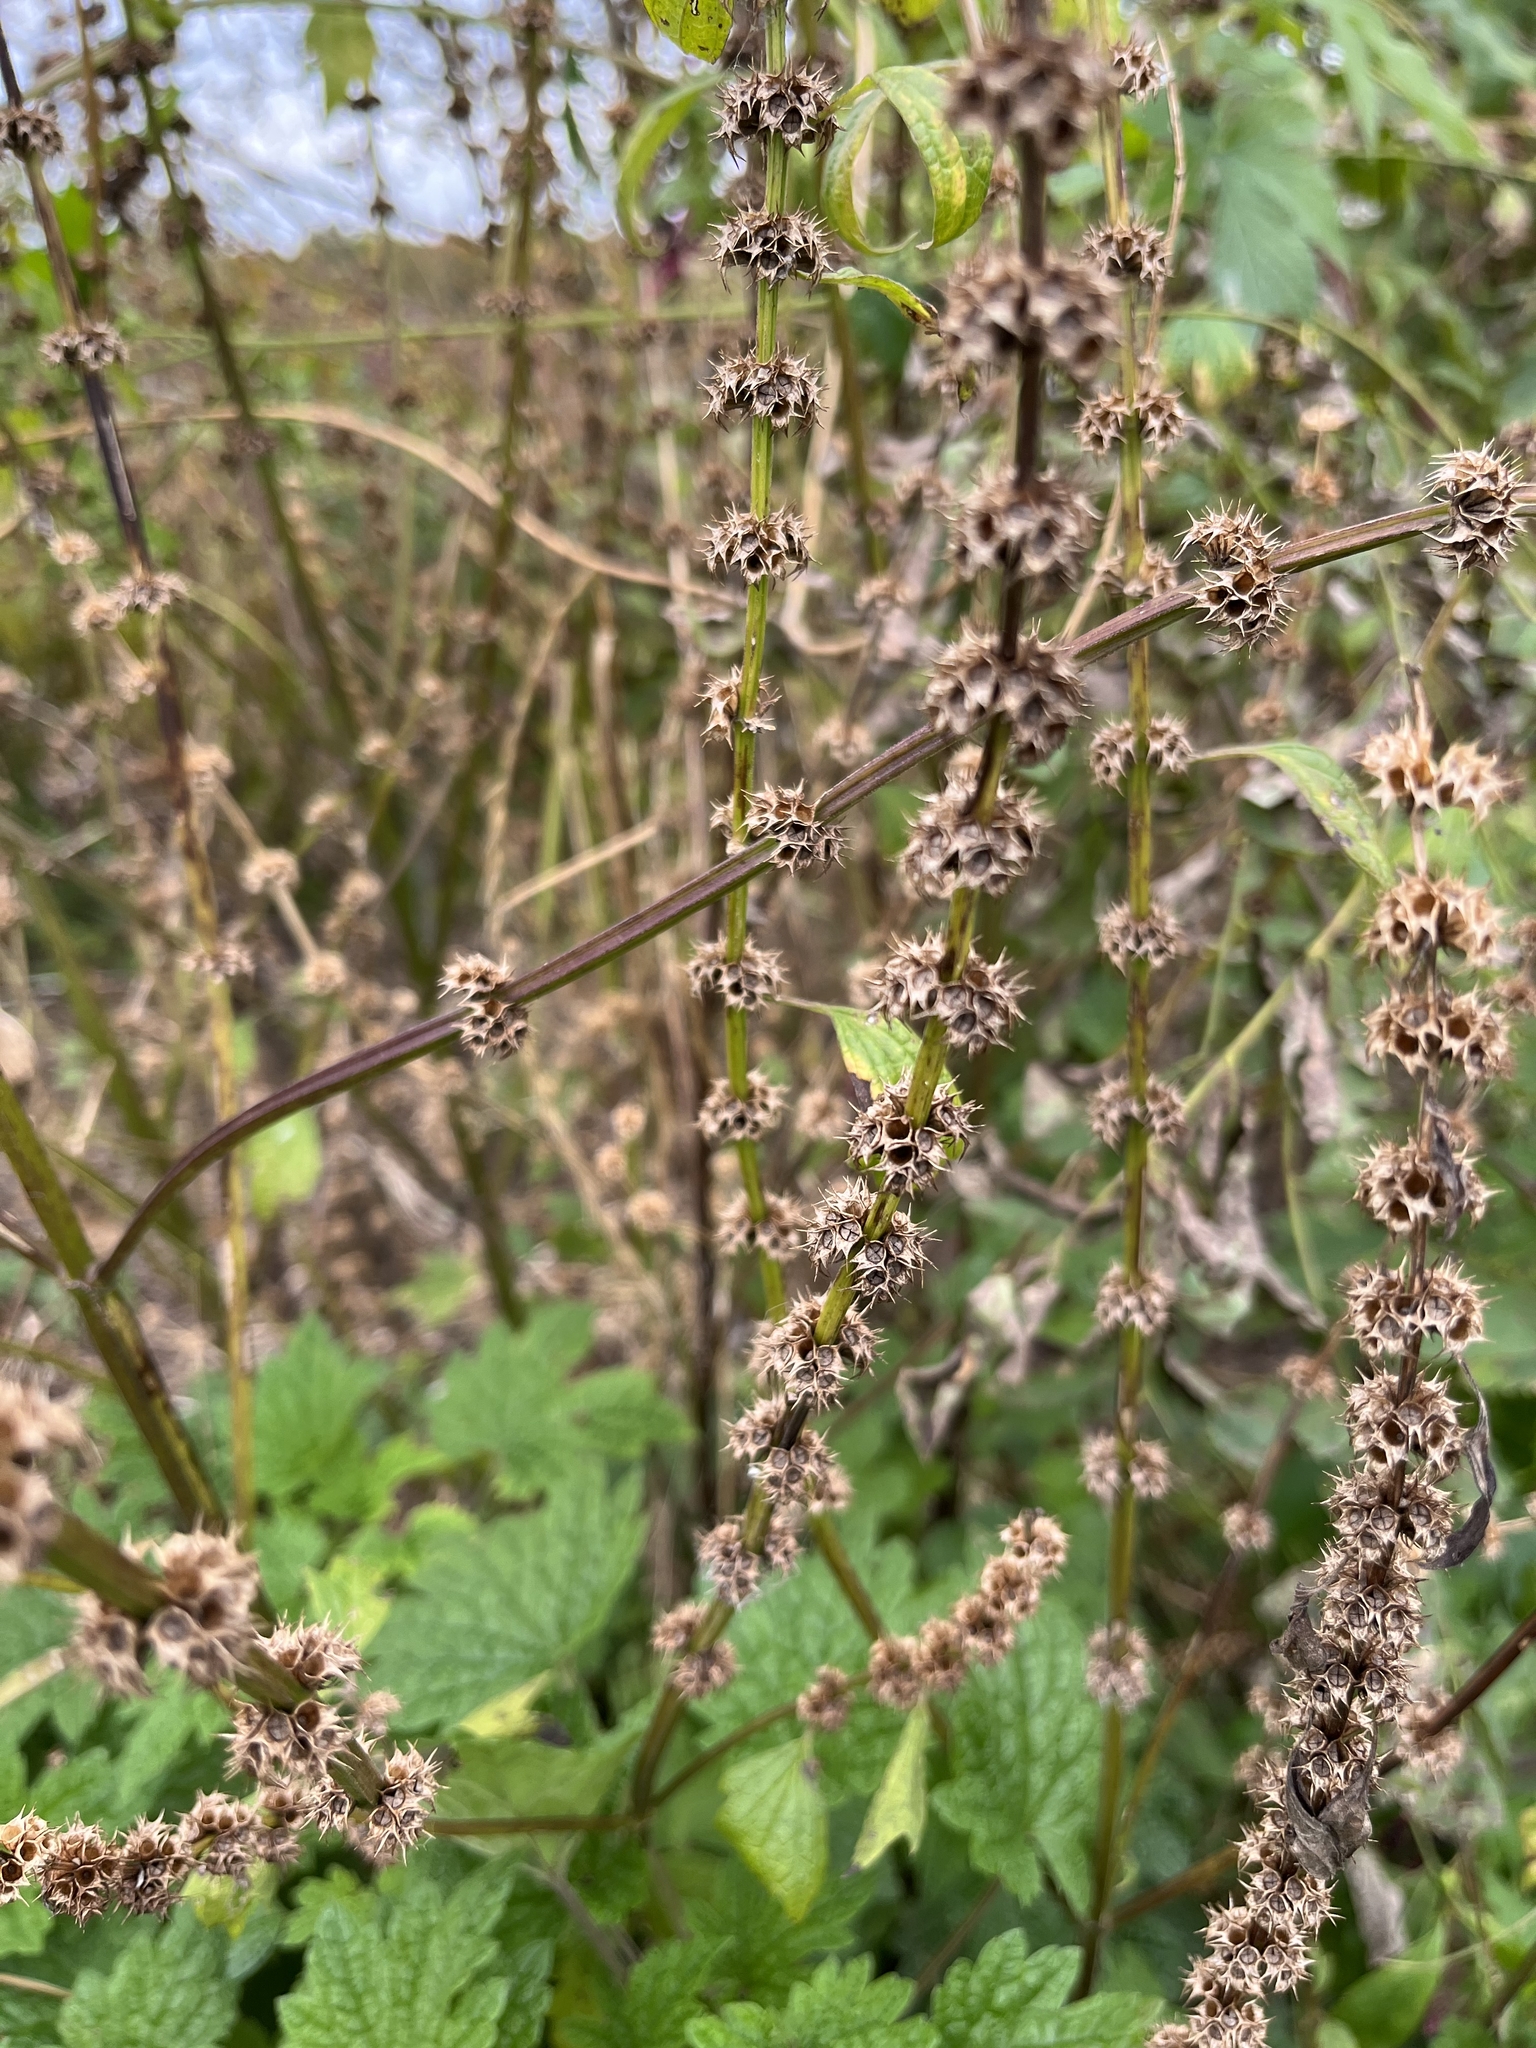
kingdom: Plantae
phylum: Tracheophyta
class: Magnoliopsida
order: Lamiales
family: Lamiaceae
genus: Leonurus
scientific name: Leonurus cardiaca
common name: Motherwort
